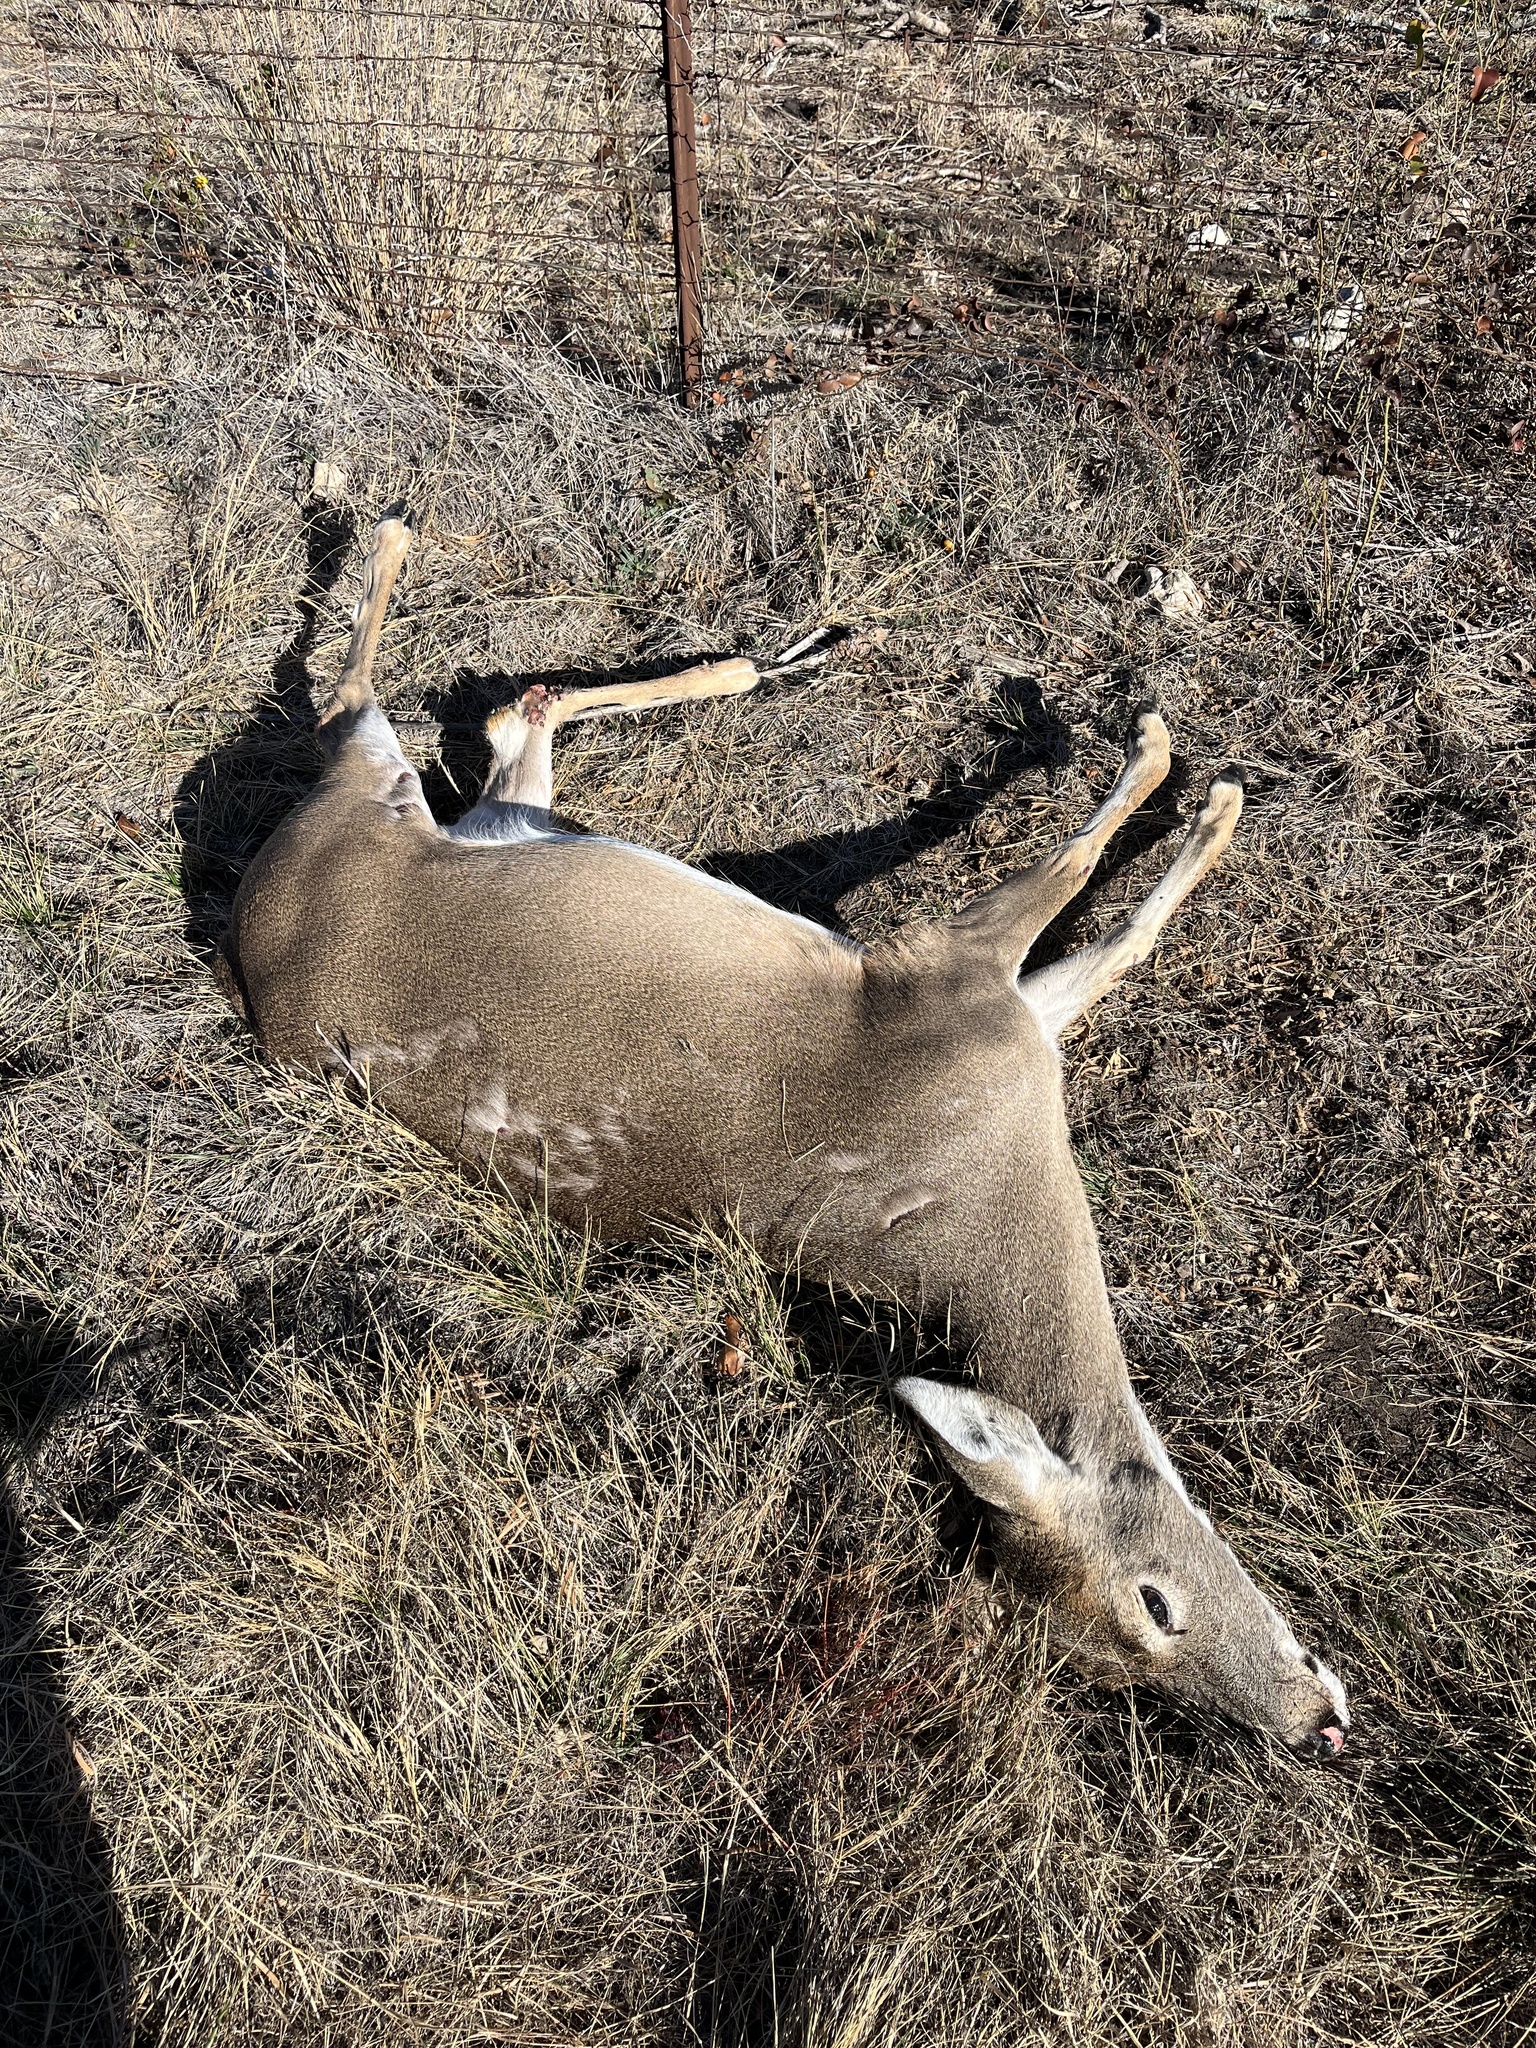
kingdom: Animalia
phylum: Chordata
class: Mammalia
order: Artiodactyla
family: Cervidae
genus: Odocoileus
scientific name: Odocoileus virginianus
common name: White-tailed deer
